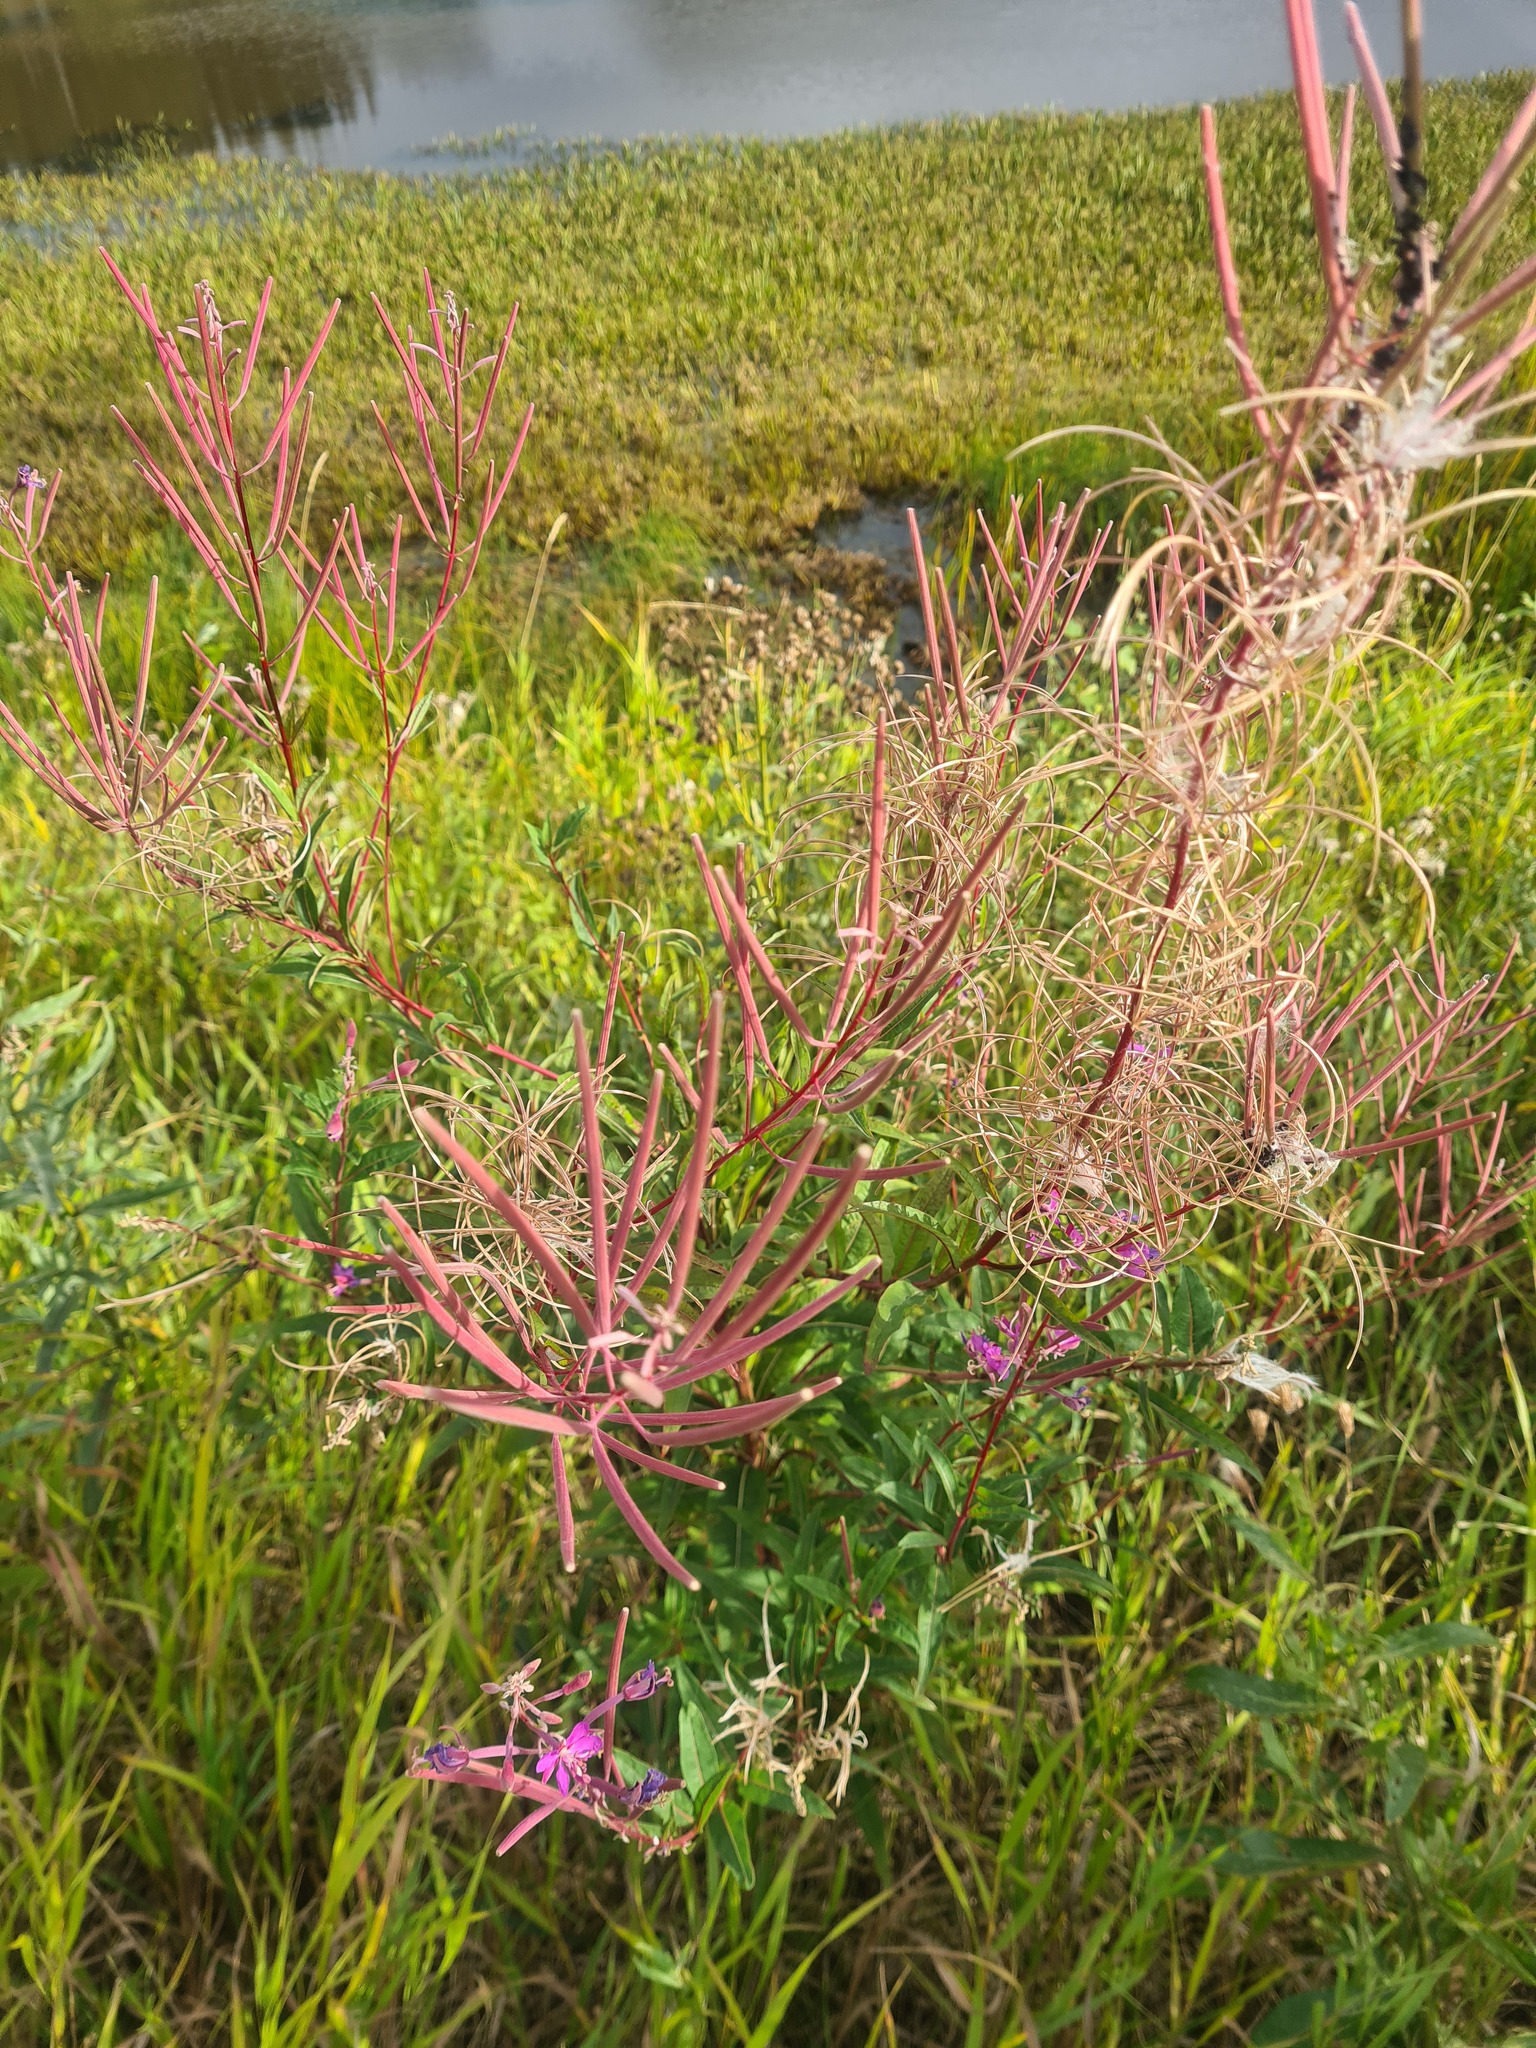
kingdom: Plantae
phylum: Tracheophyta
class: Magnoliopsida
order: Myrtales
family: Onagraceae
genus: Chamaenerion
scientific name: Chamaenerion angustifolium
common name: Fireweed
